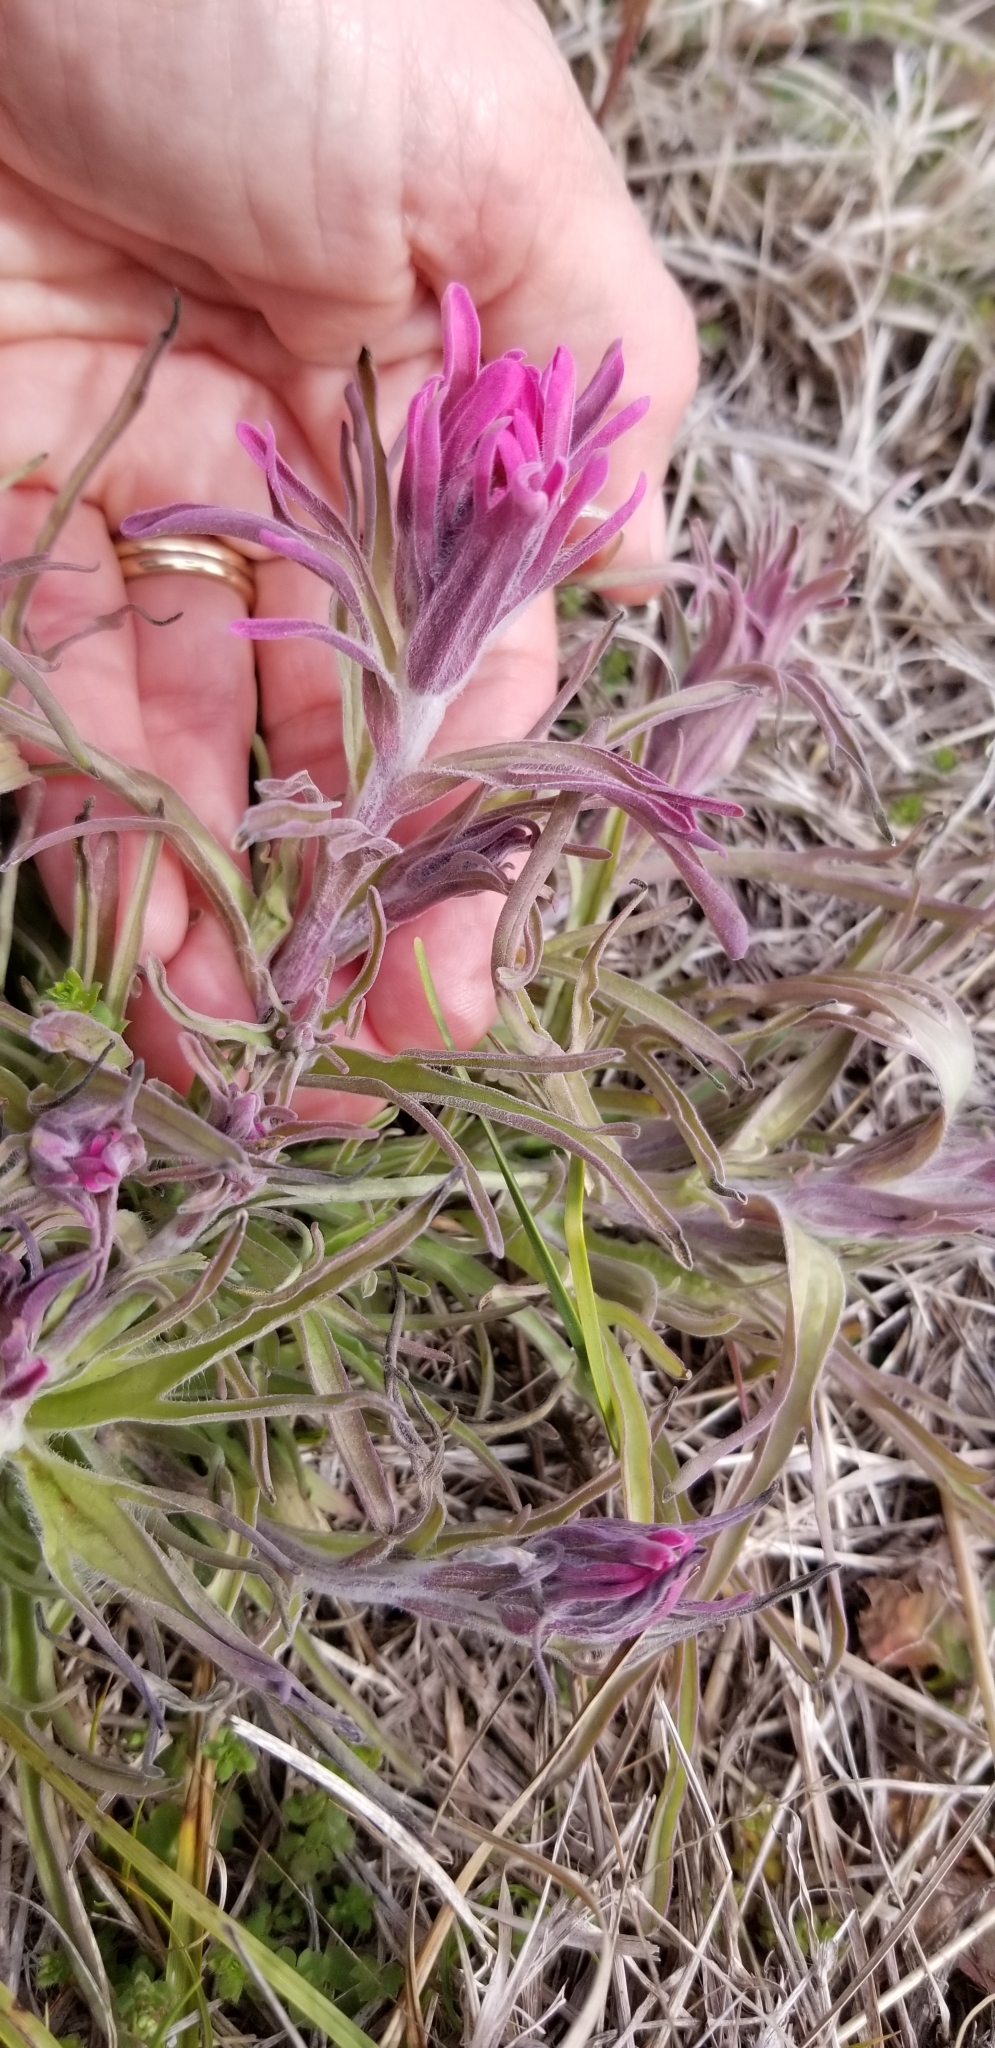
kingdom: Plantae
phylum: Tracheophyta
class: Magnoliopsida
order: Lamiales
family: Orobanchaceae
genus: Castilleja
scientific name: Castilleja purpurea
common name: Plains paintbrush
